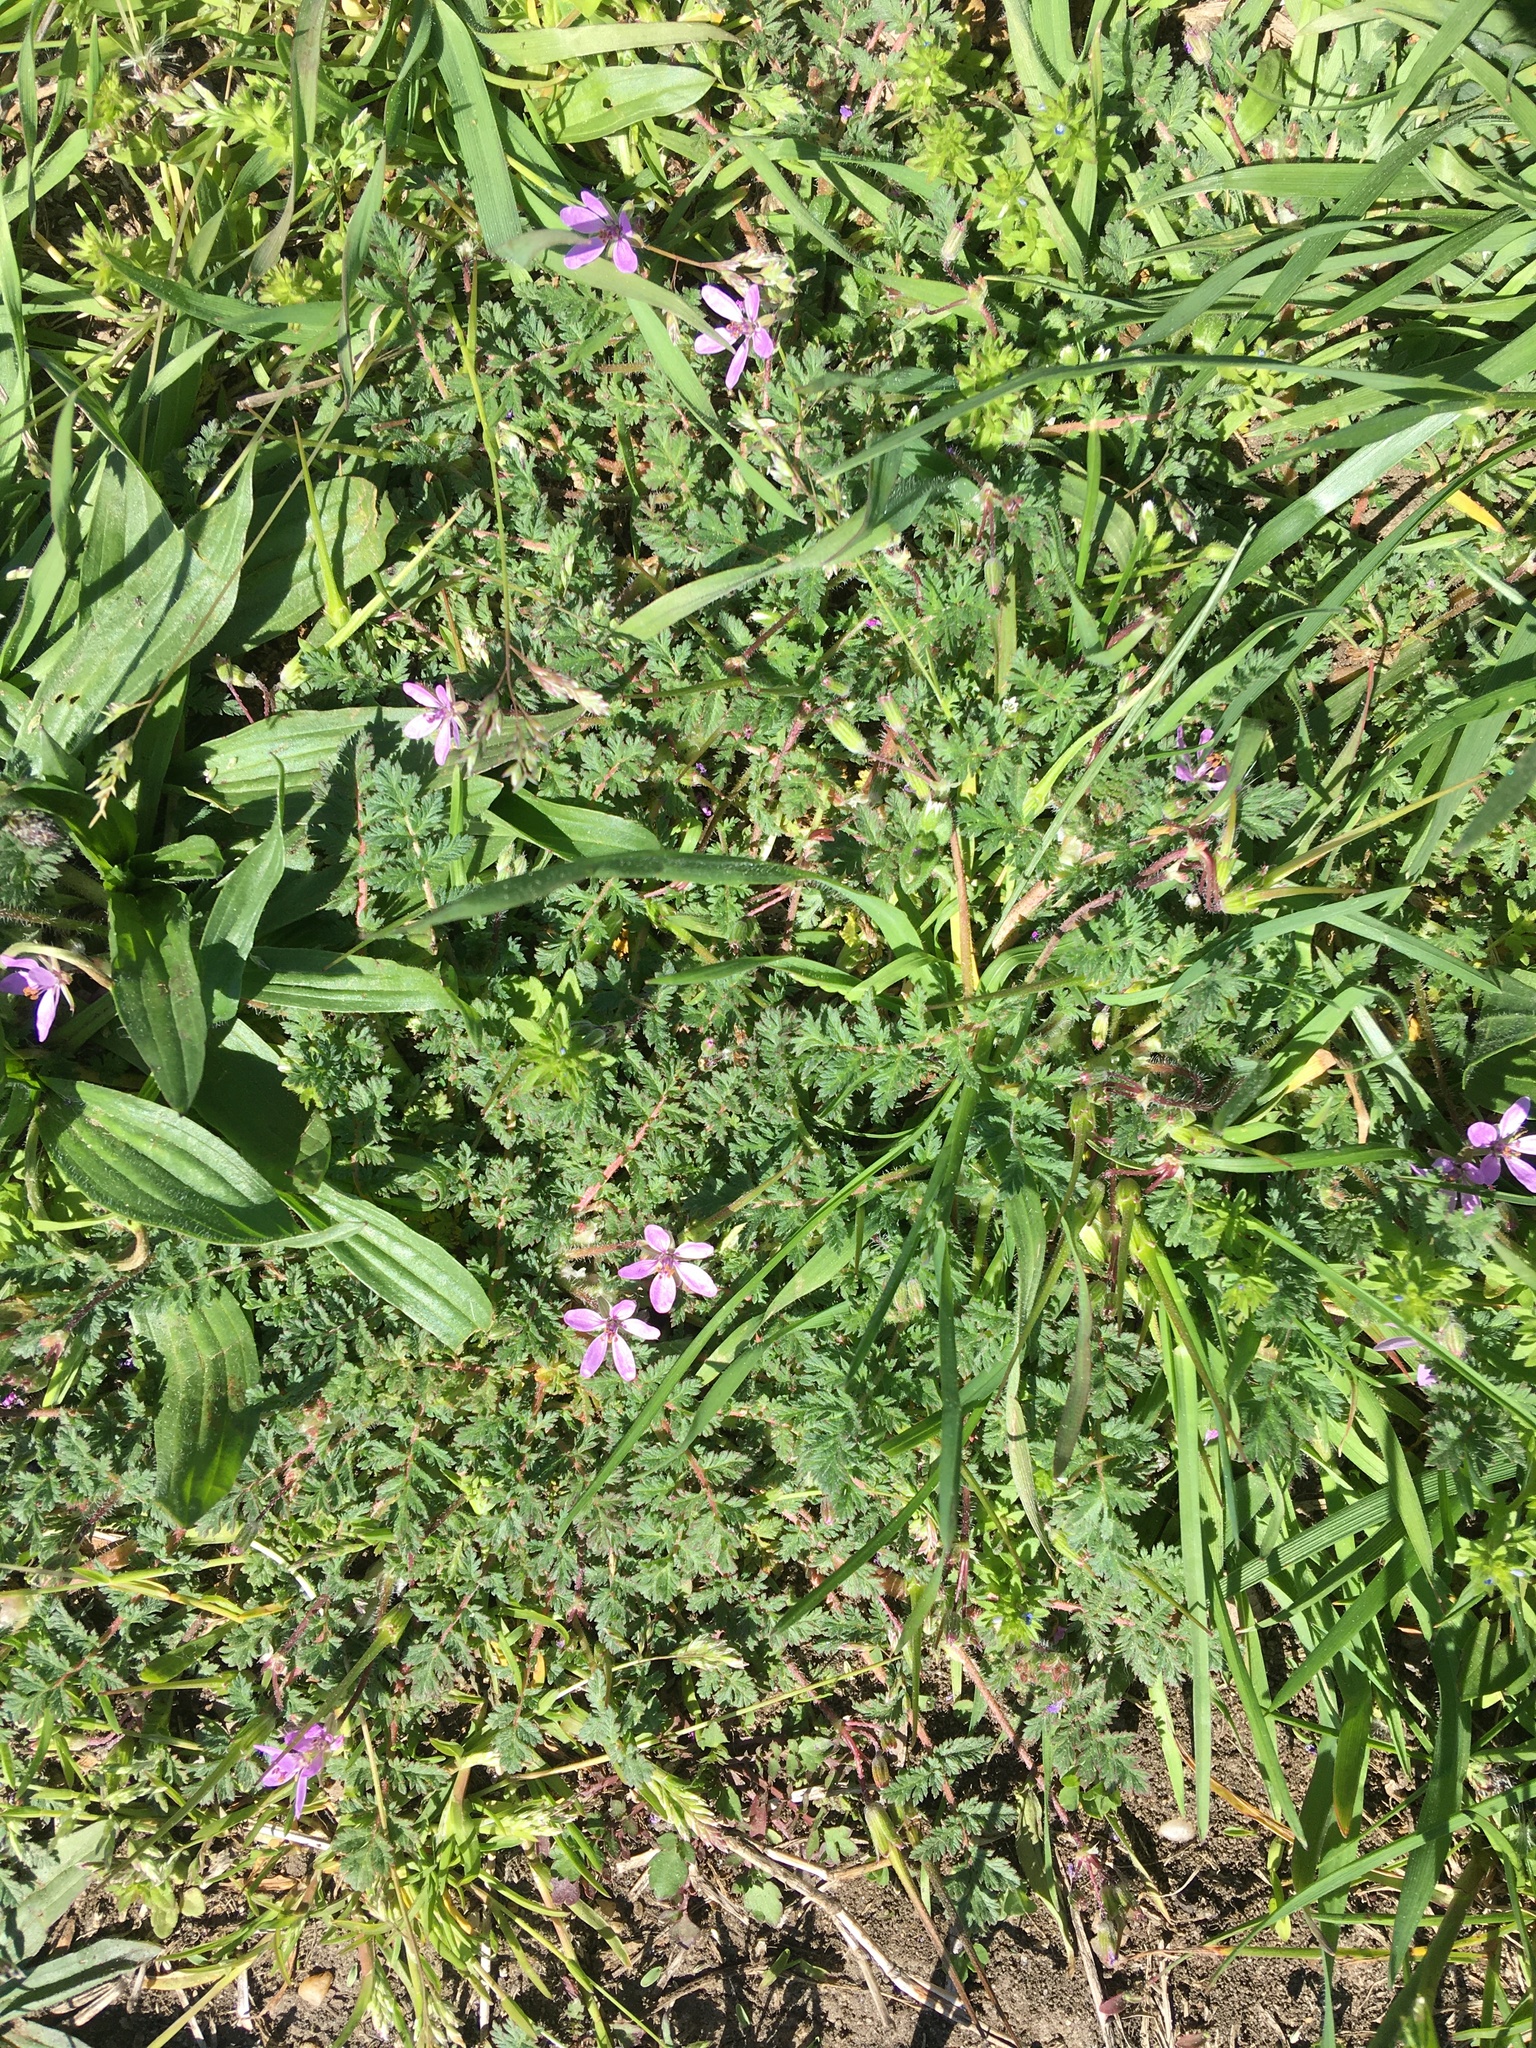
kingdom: Plantae
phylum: Tracheophyta
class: Magnoliopsida
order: Geraniales
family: Geraniaceae
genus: Erodium
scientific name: Erodium cicutarium
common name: Common stork's-bill
